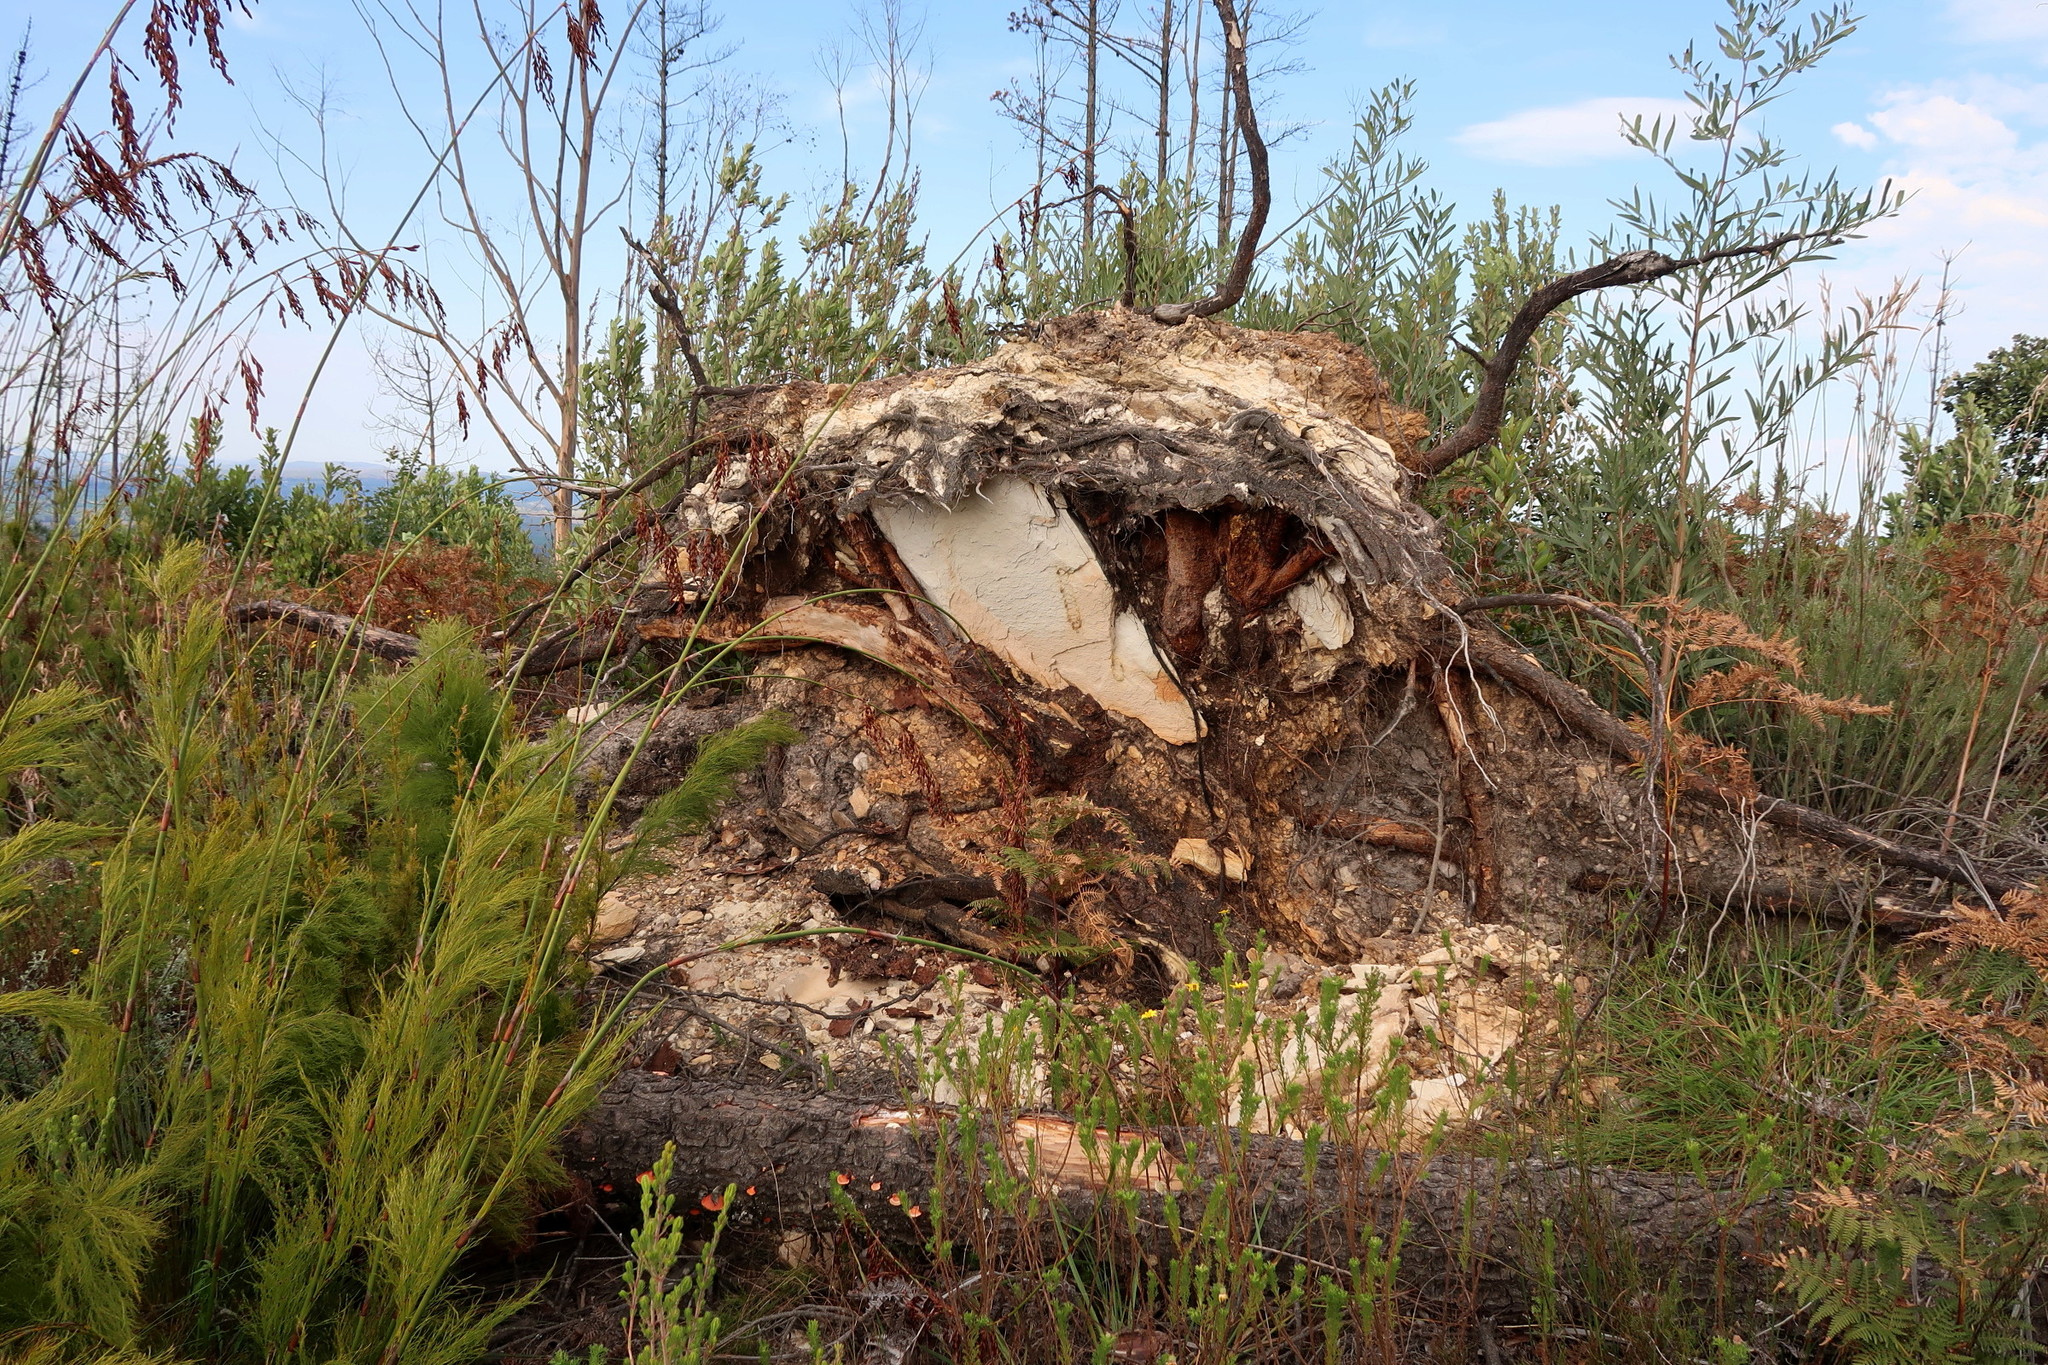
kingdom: Plantae
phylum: Tracheophyta
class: Pinopsida
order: Pinales
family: Pinaceae
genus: Pinus
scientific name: Pinus pinaster
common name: Maritime pine
